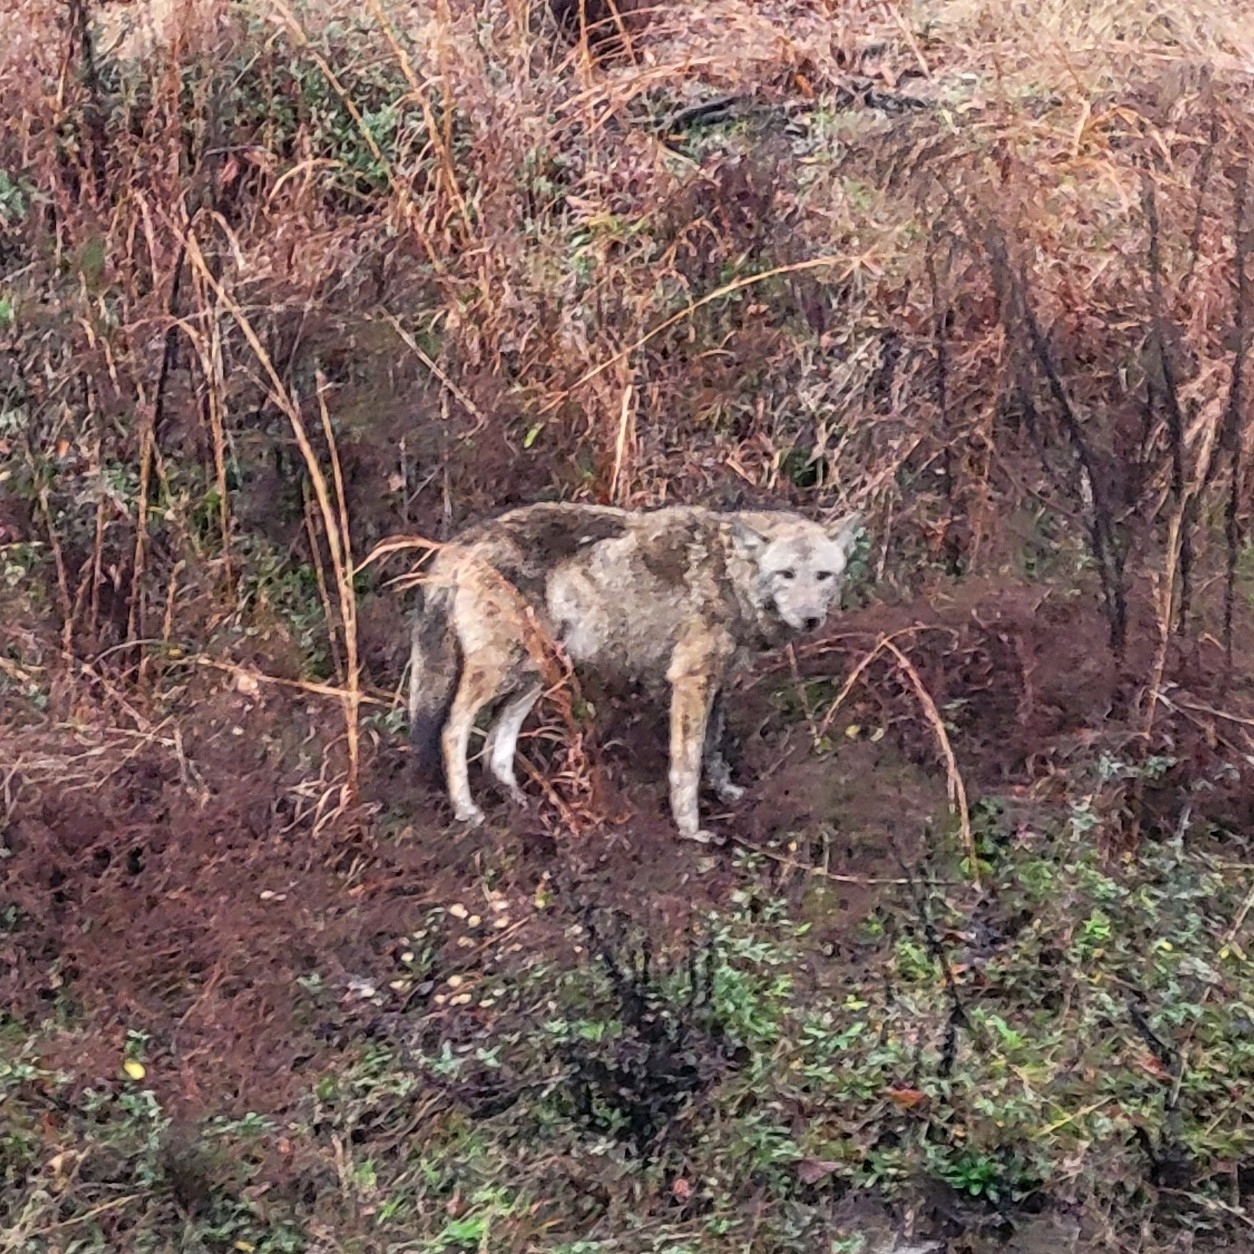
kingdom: Animalia
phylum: Chordata
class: Mammalia
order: Carnivora
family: Canidae
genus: Canis
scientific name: Canis latrans
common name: Coyote
